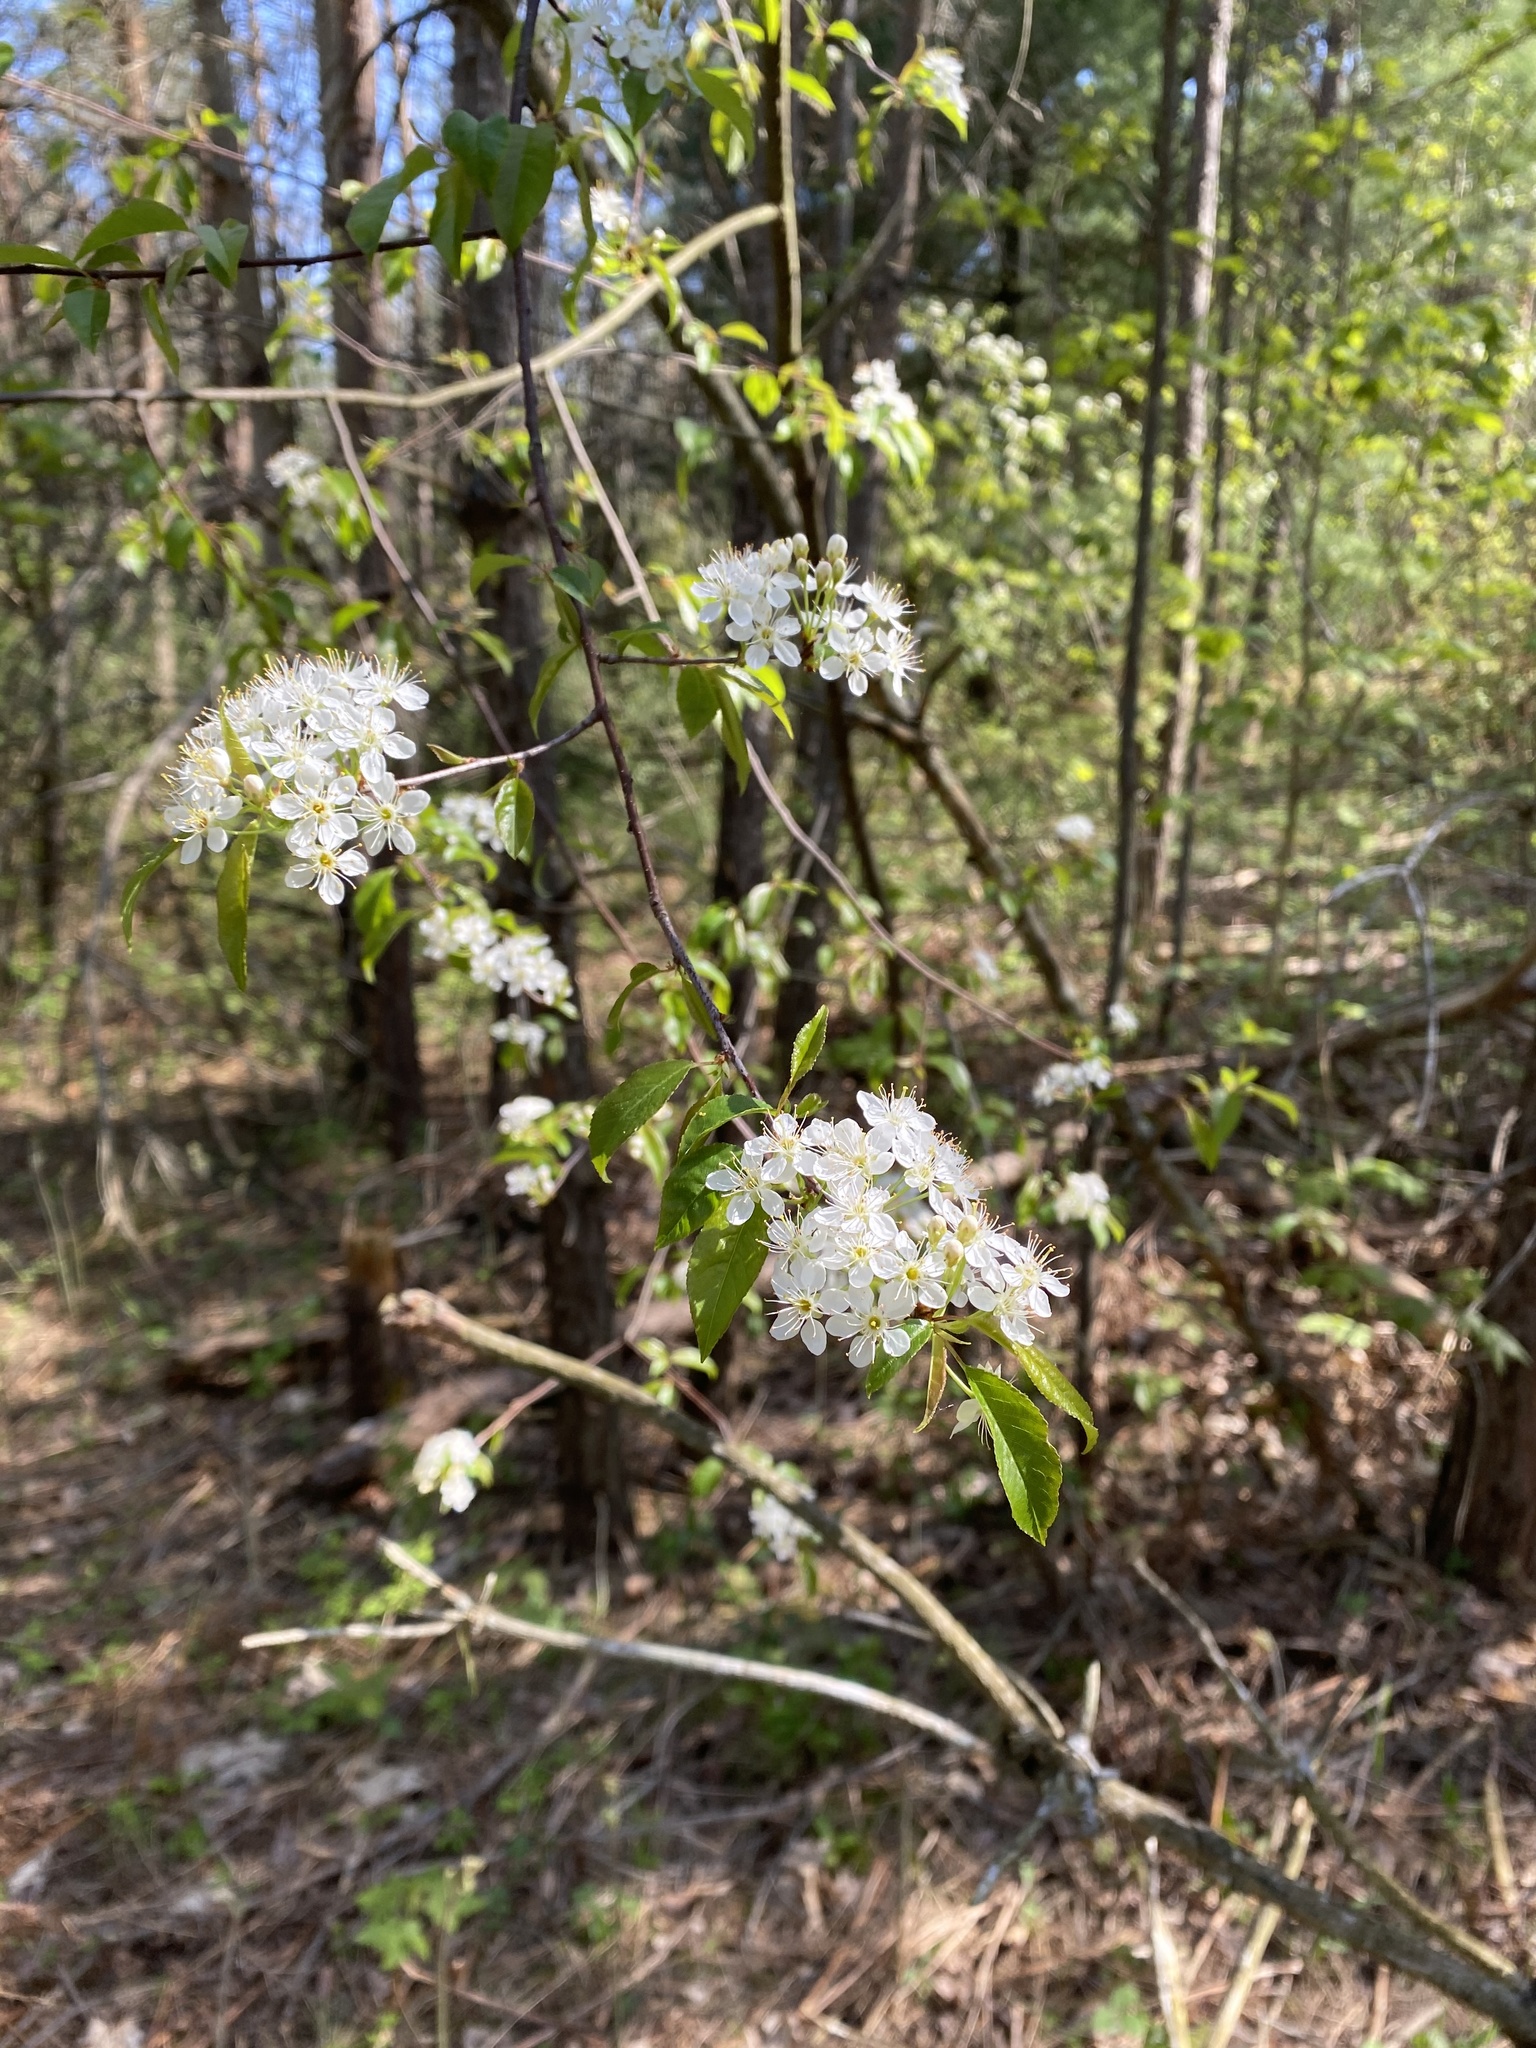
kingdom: Plantae
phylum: Tracheophyta
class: Magnoliopsida
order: Rosales
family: Rosaceae
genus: Prunus
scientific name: Prunus pensylvanica
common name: Pin cherry
